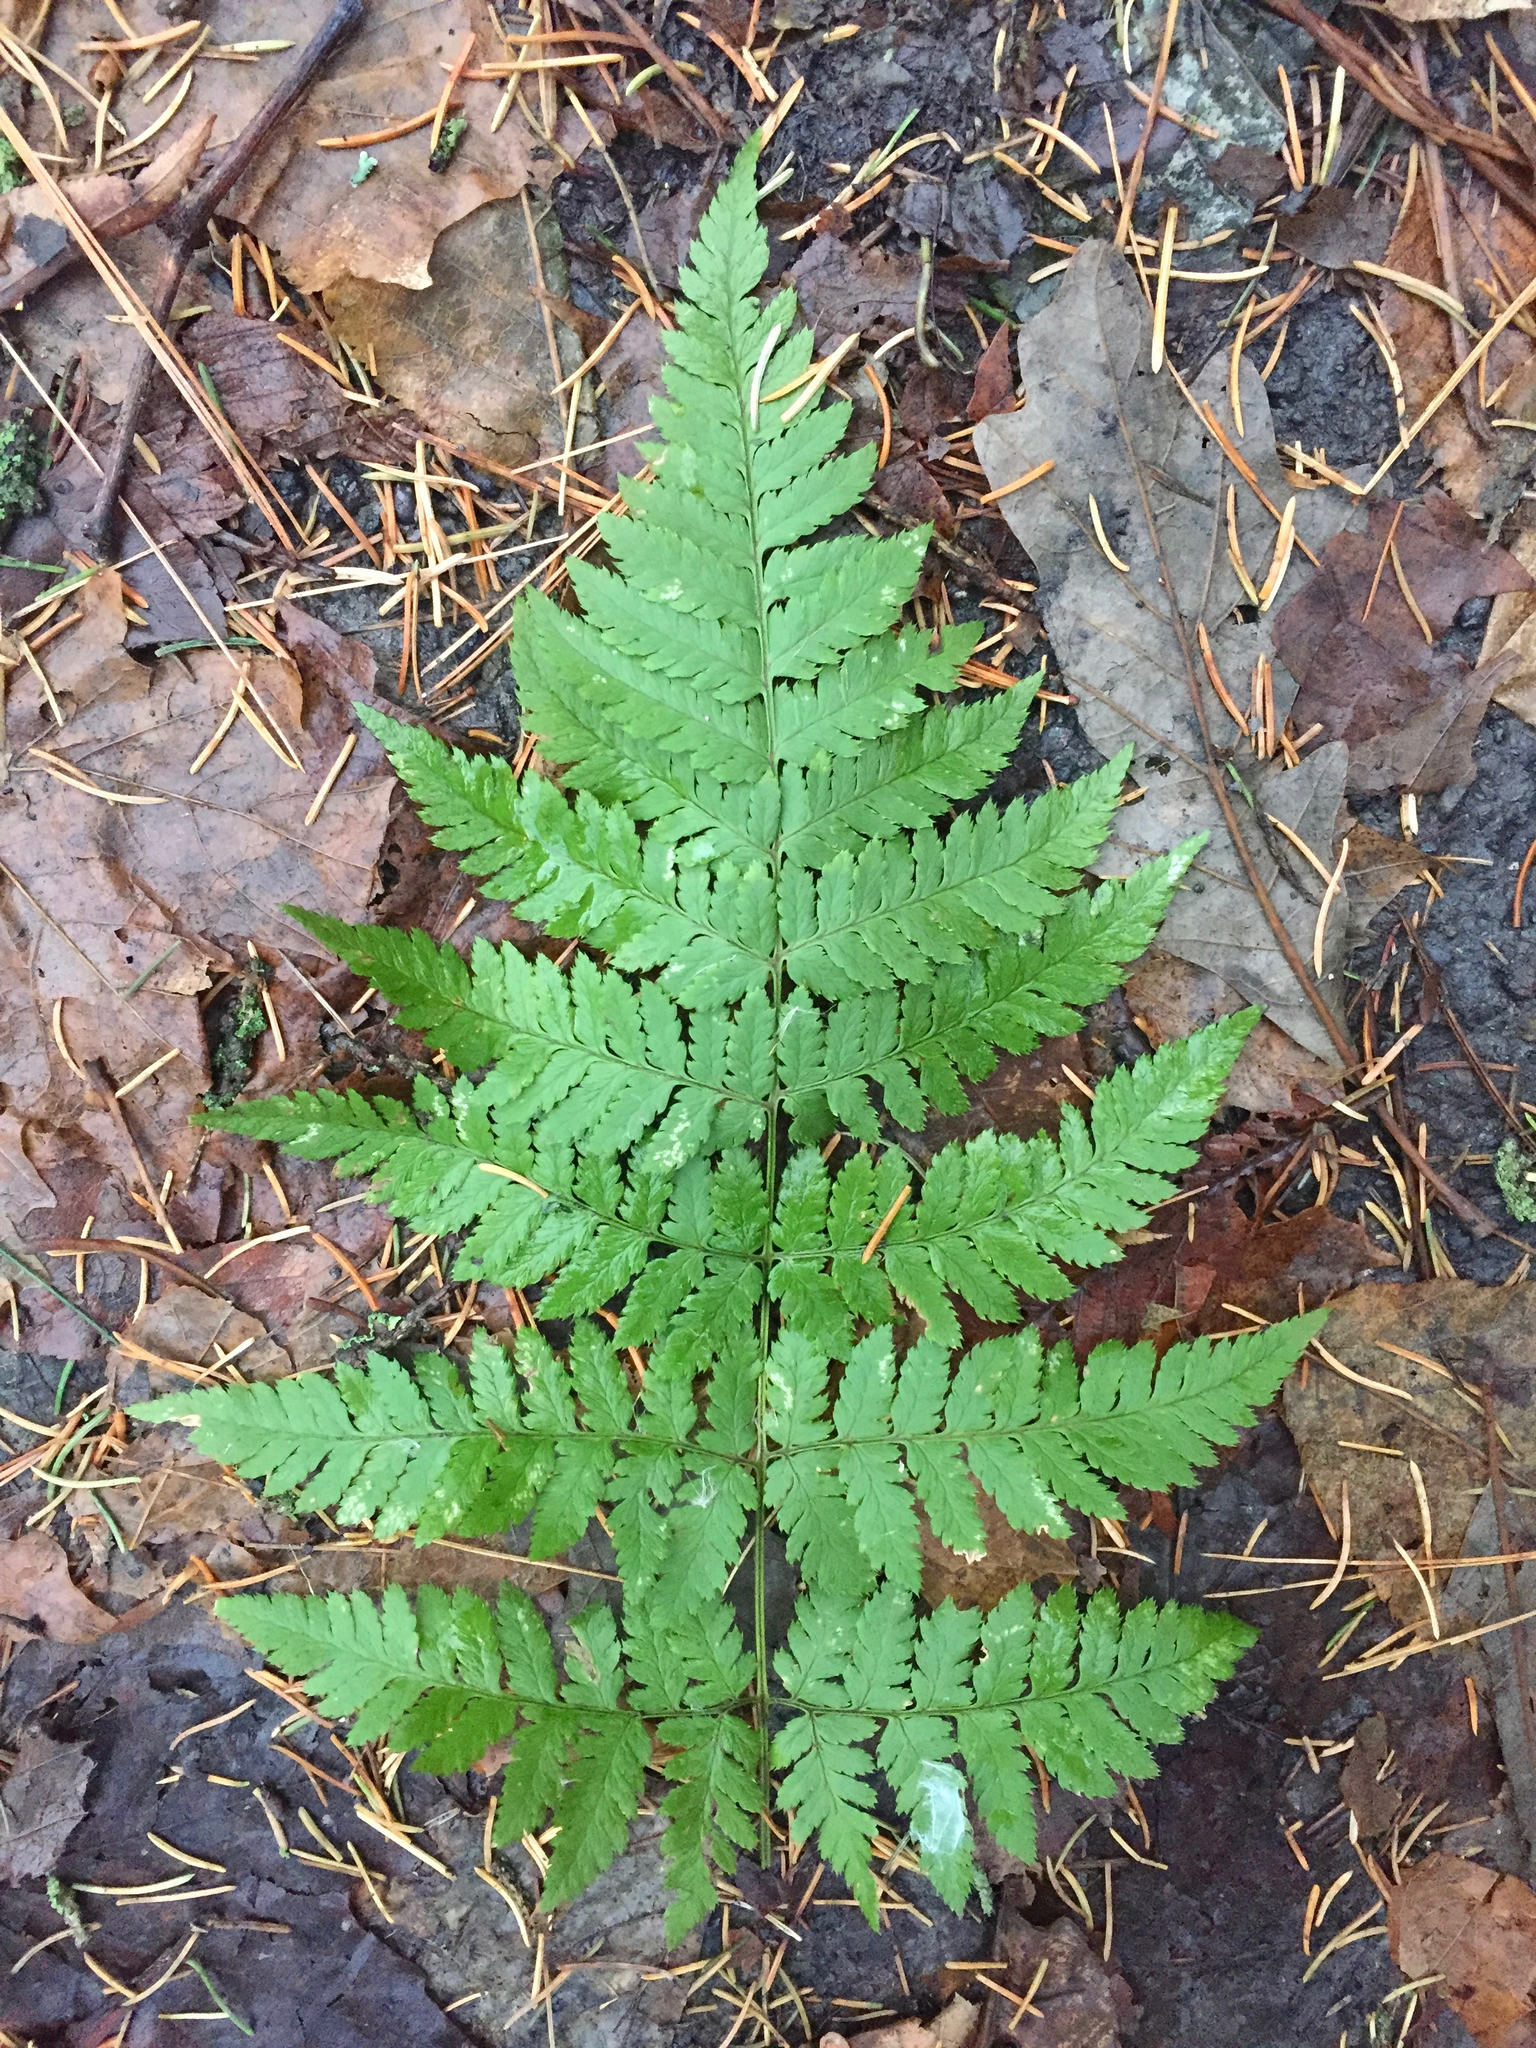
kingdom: Plantae
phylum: Tracheophyta
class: Polypodiopsida
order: Polypodiales
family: Dryopteridaceae
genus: Dryopteris
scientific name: Dryopteris carthusiana
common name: Narrow buckler-fern
